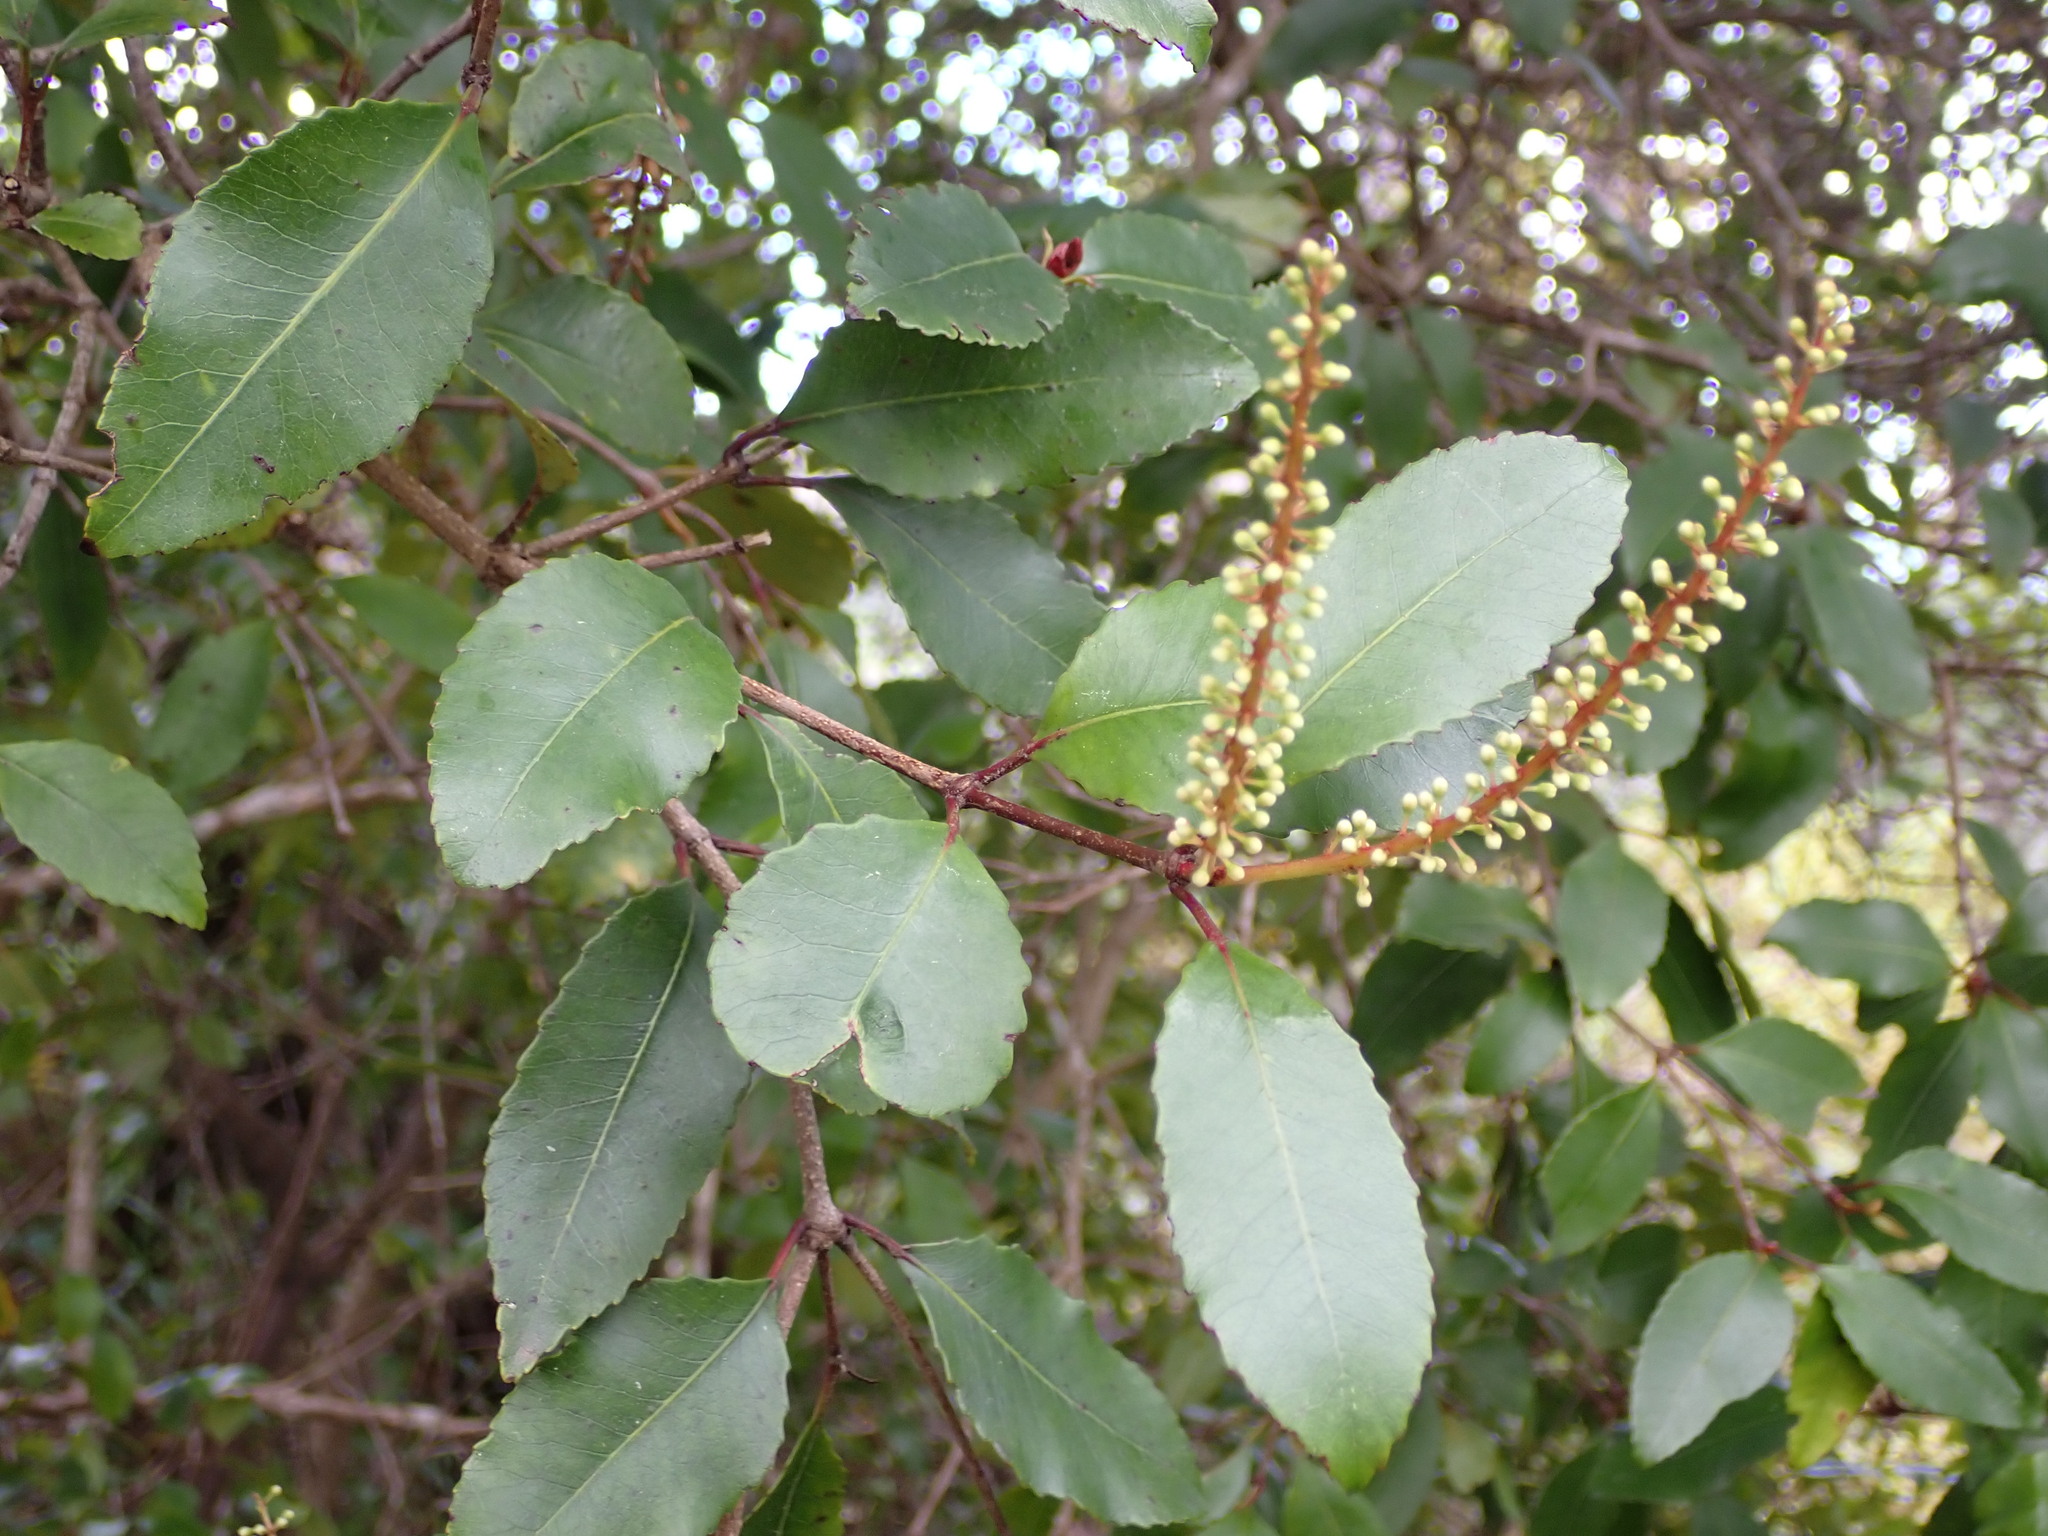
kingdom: Plantae
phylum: Tracheophyta
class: Magnoliopsida
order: Oxalidales
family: Cunoniaceae
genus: Pterophylla
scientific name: Pterophylla racemosa
